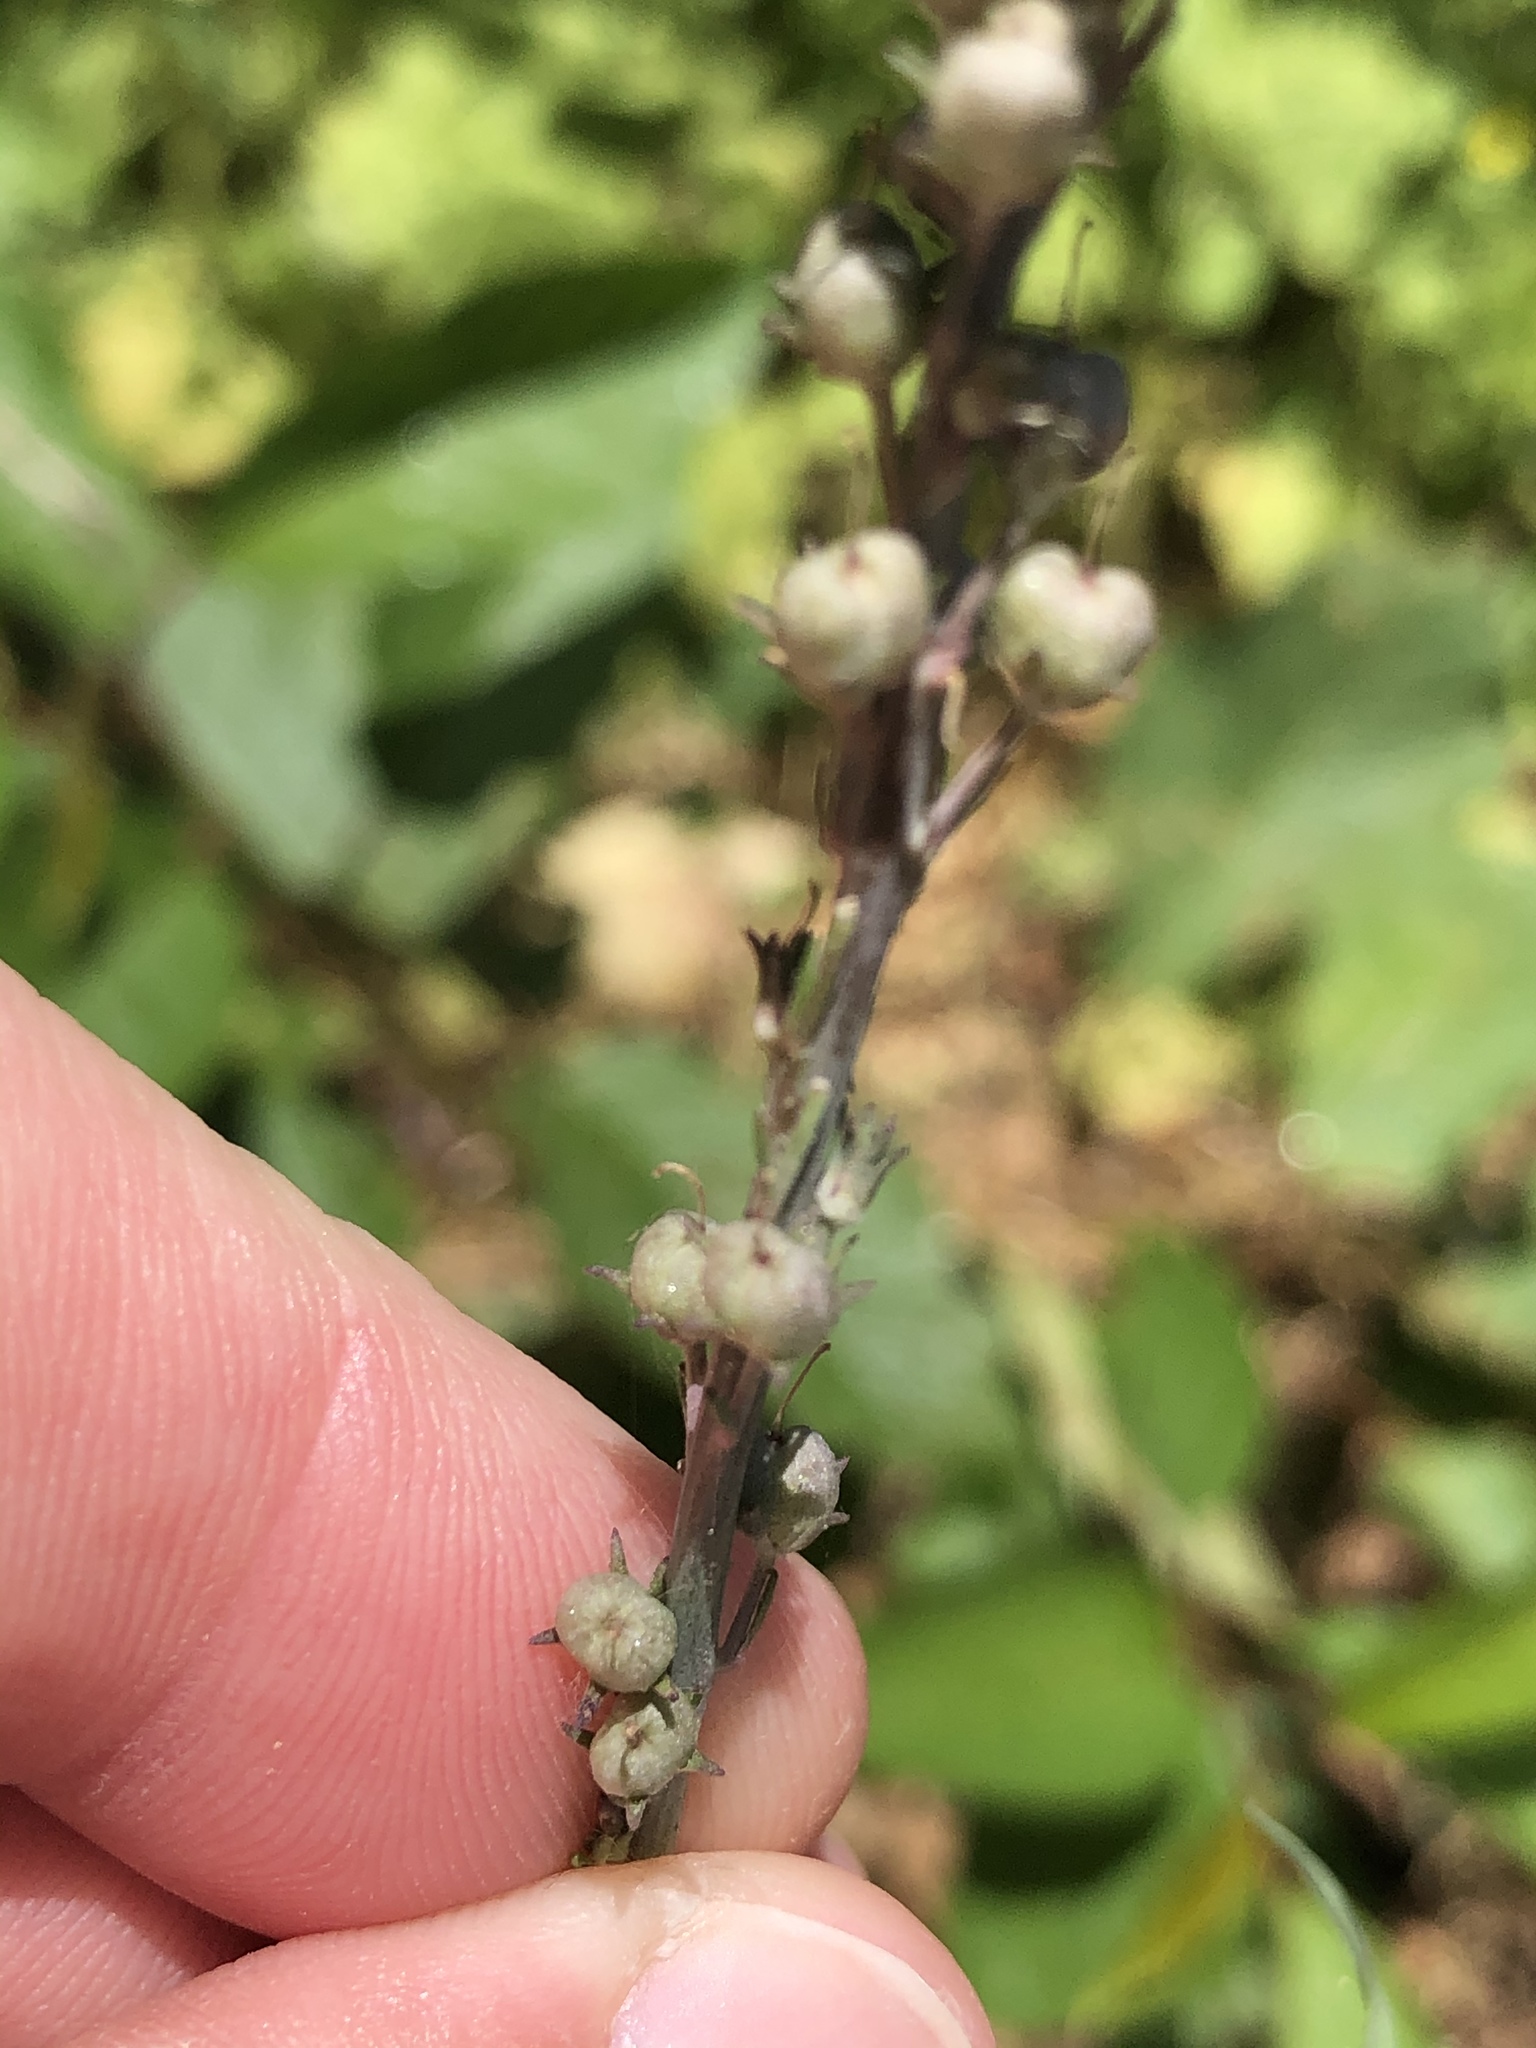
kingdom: Plantae
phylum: Tracheophyta
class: Magnoliopsida
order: Lamiales
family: Plantaginaceae
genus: Linaria
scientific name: Linaria purpurea
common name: Purple toadflax
